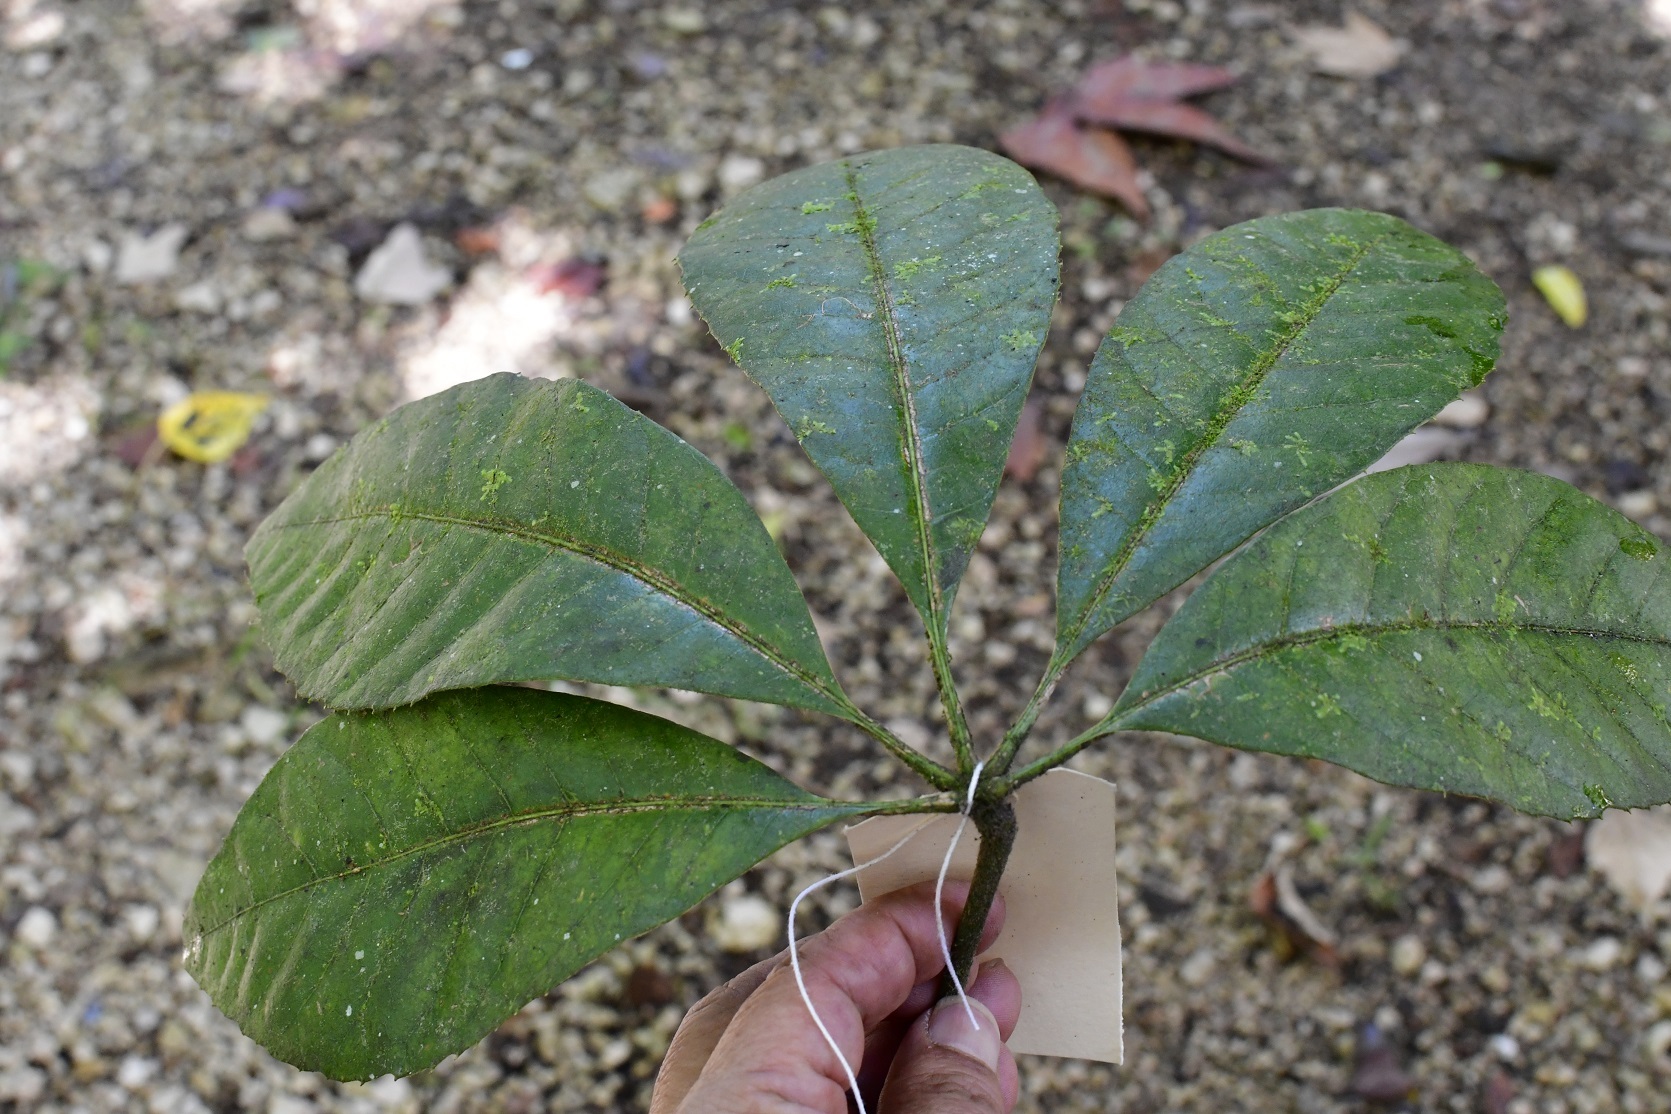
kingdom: Plantae
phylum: Tracheophyta
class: Magnoliopsida
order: Apiales
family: Araliaceae
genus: Oreopanax
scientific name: Oreopanax echinops
